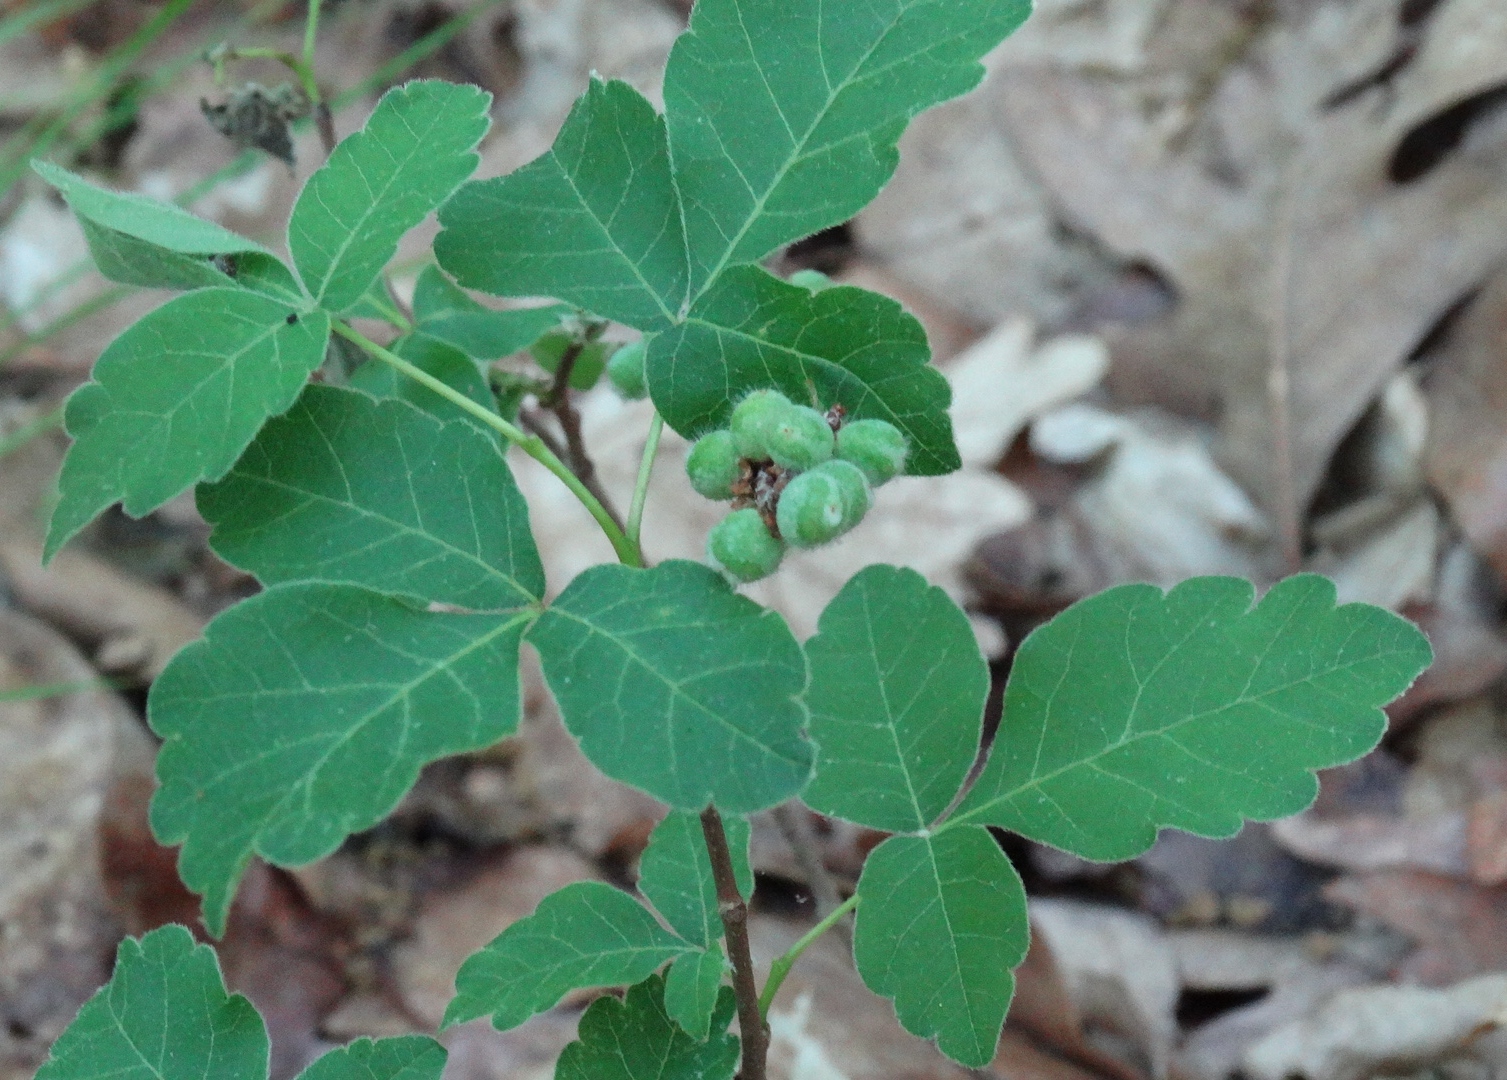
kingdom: Plantae
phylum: Tracheophyta
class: Magnoliopsida
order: Sapindales
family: Anacardiaceae
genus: Rhus
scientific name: Rhus aromatica
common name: Aromatic sumac
